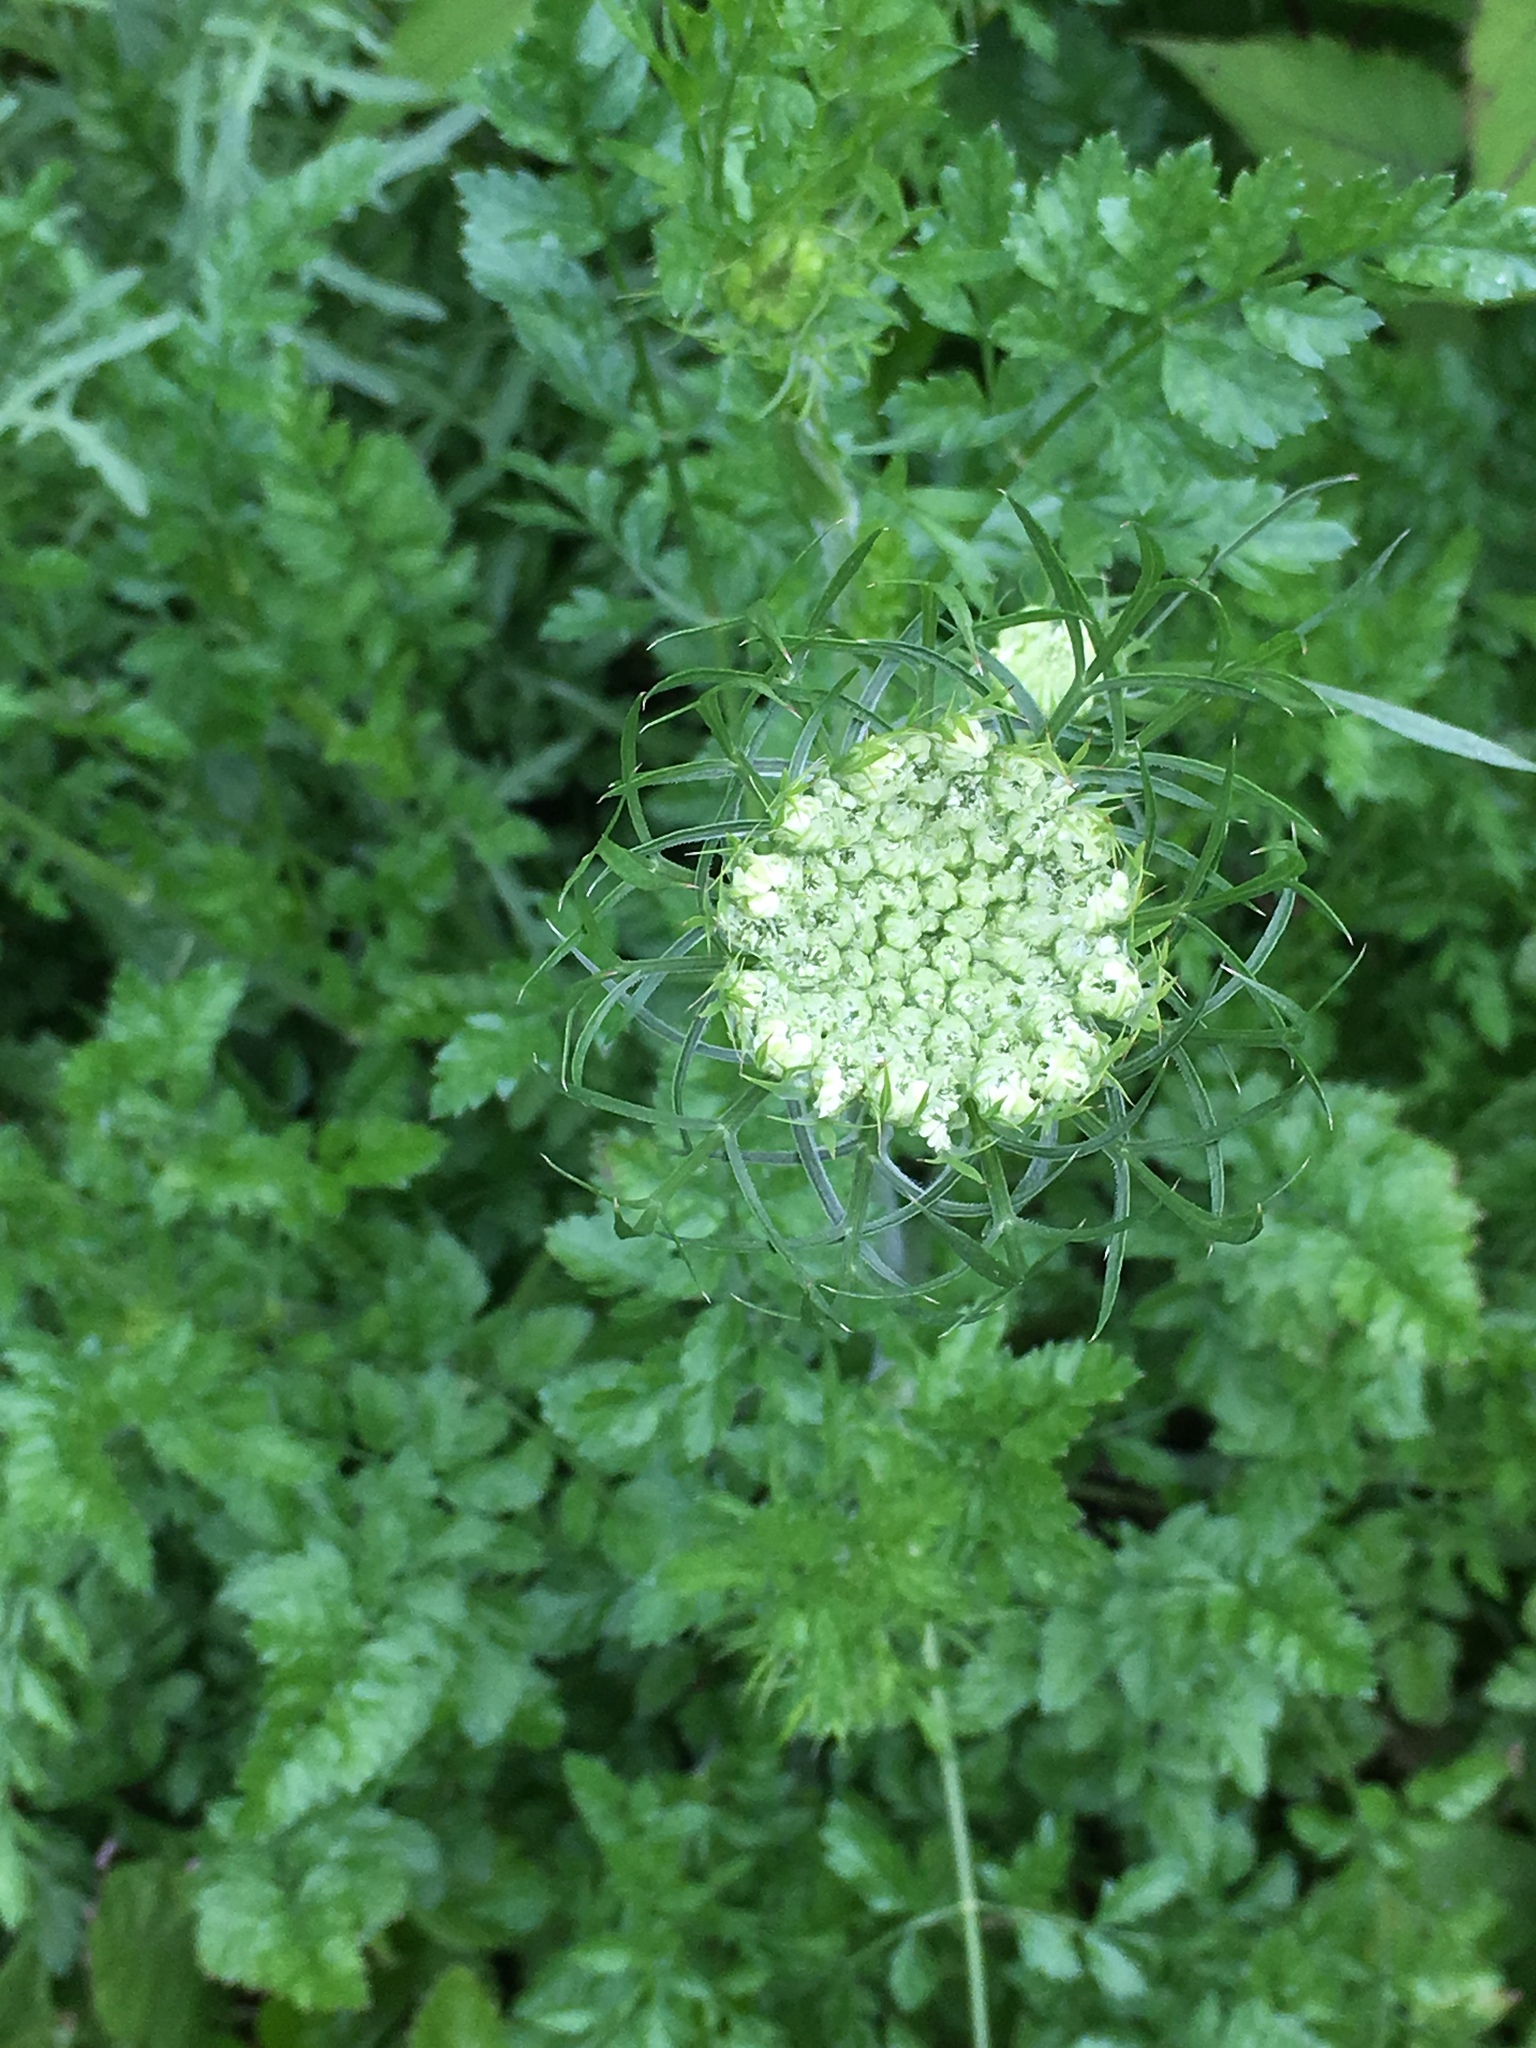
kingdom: Plantae
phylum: Tracheophyta
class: Magnoliopsida
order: Apiales
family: Apiaceae
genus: Daucus
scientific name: Daucus carota
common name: Wild carrot
